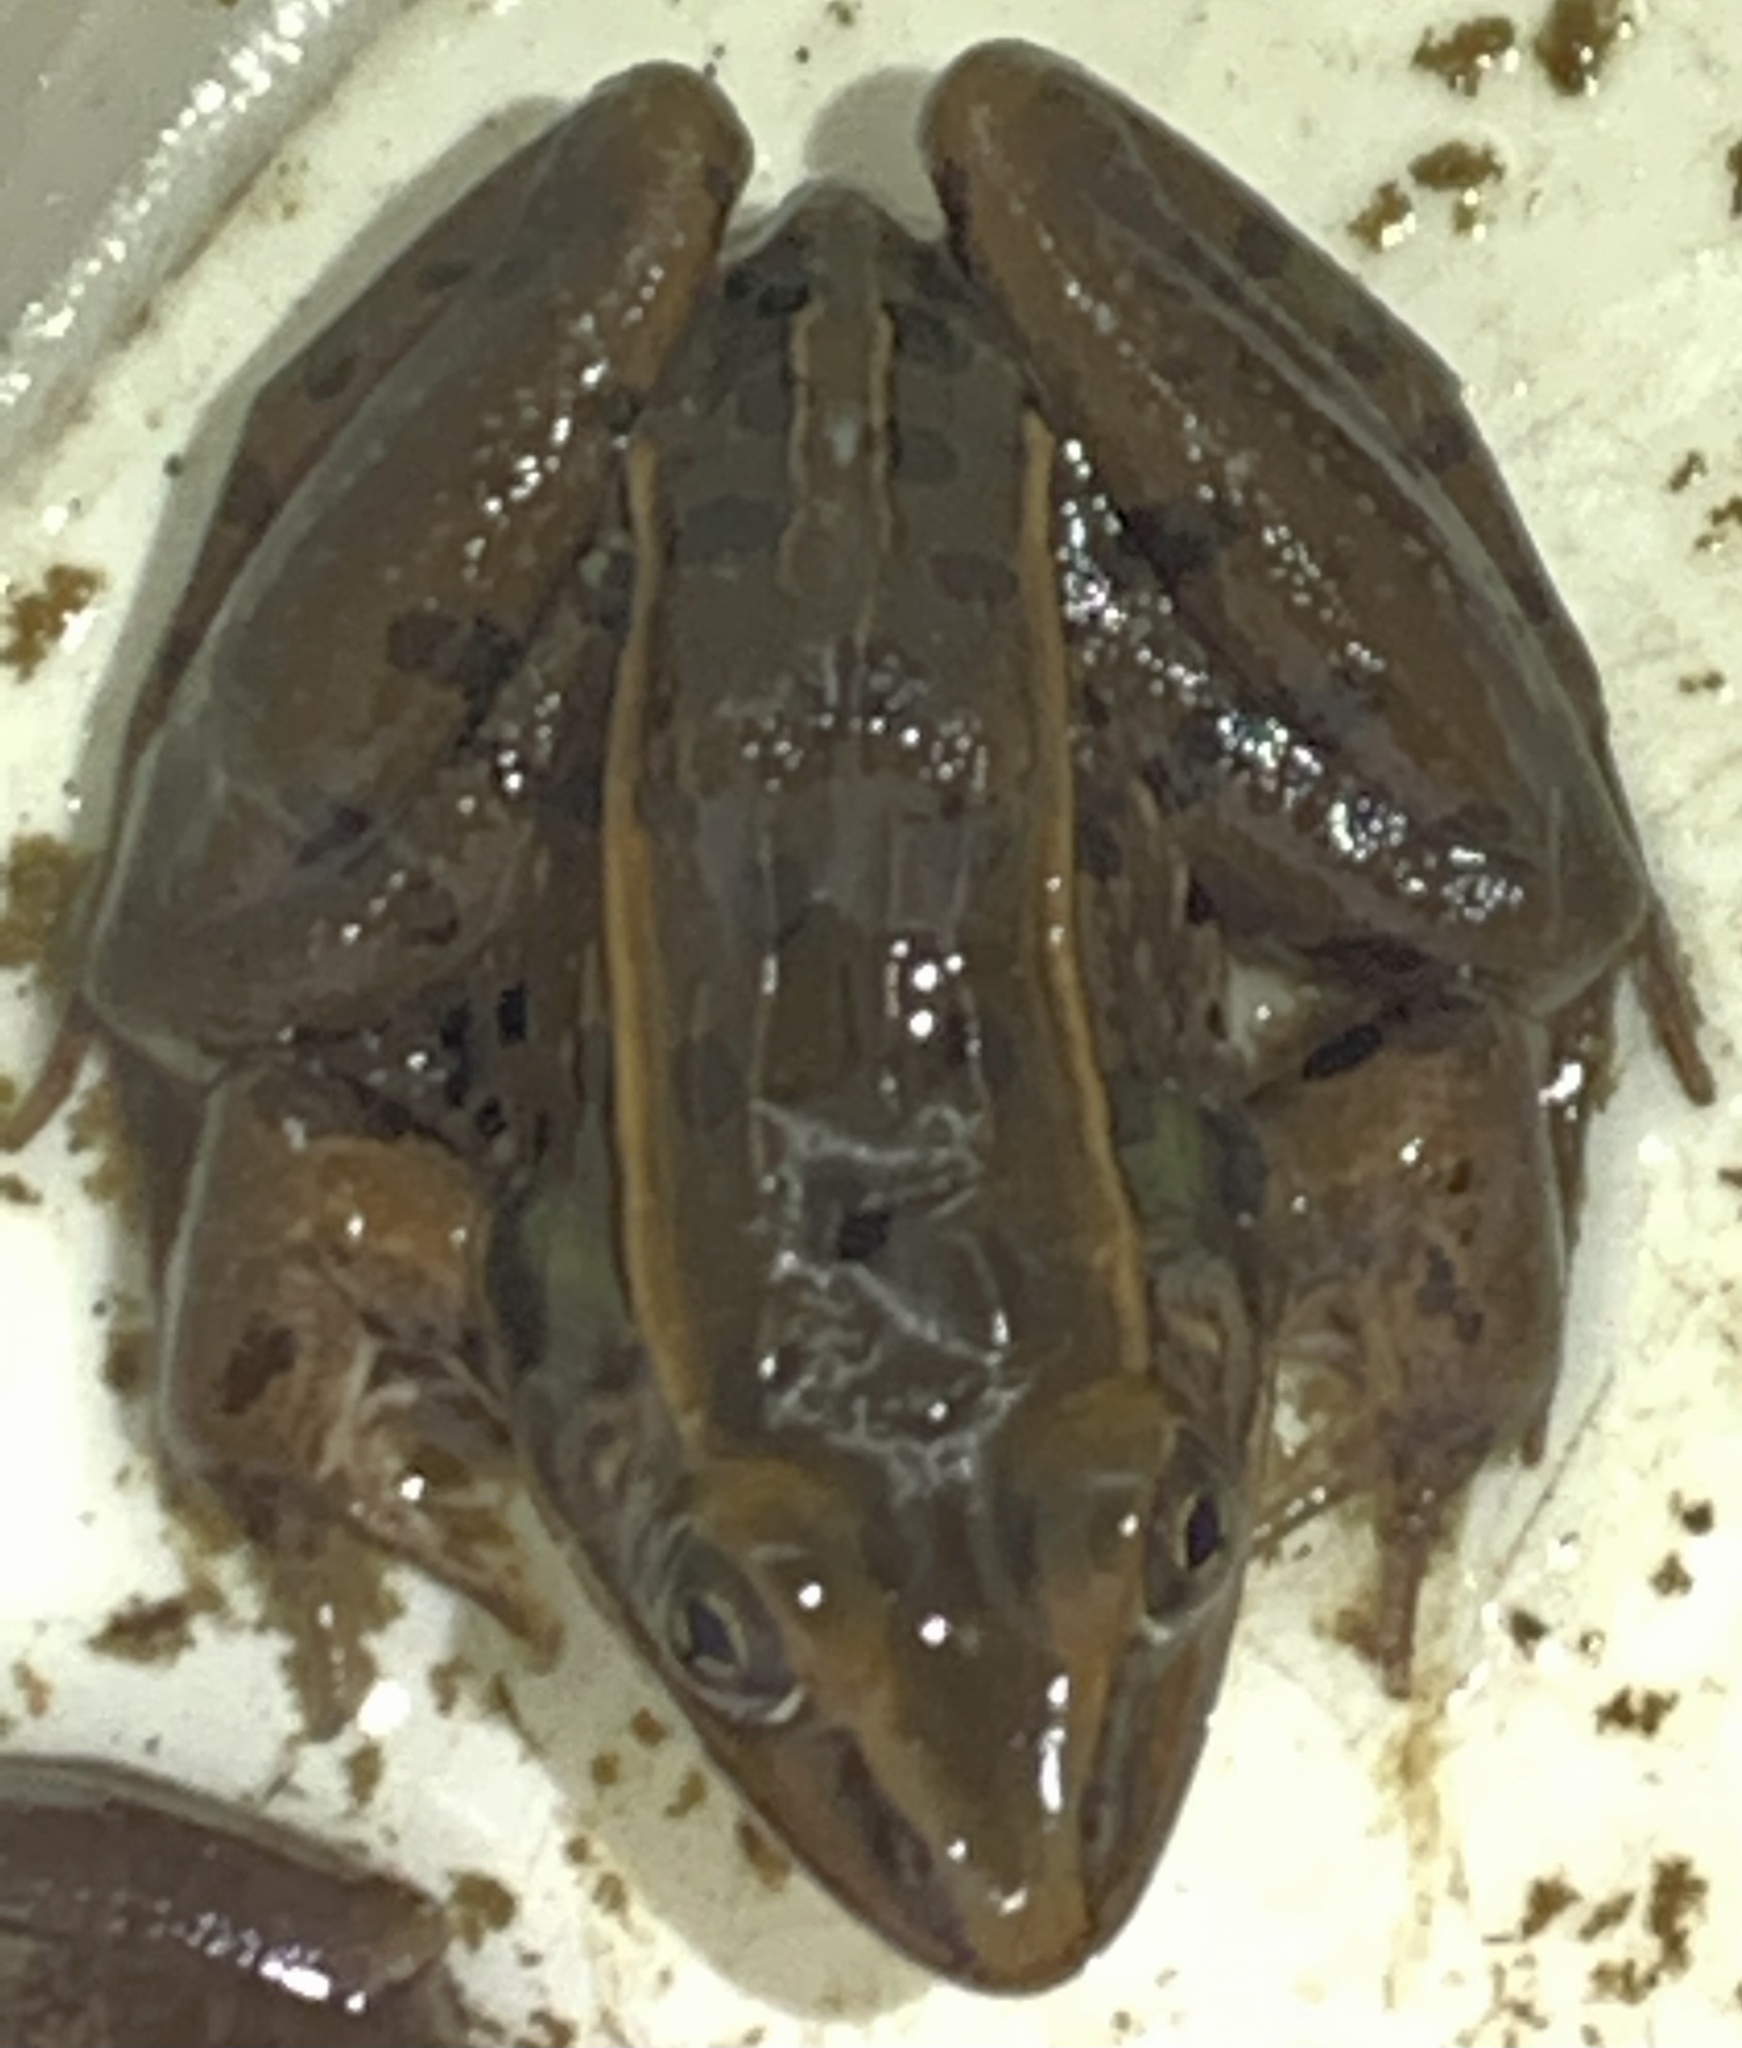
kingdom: Animalia
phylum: Chordata
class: Amphibia
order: Anura
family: Ranidae
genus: Lithobates
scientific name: Lithobates sphenocephalus
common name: Southern leopard frog
